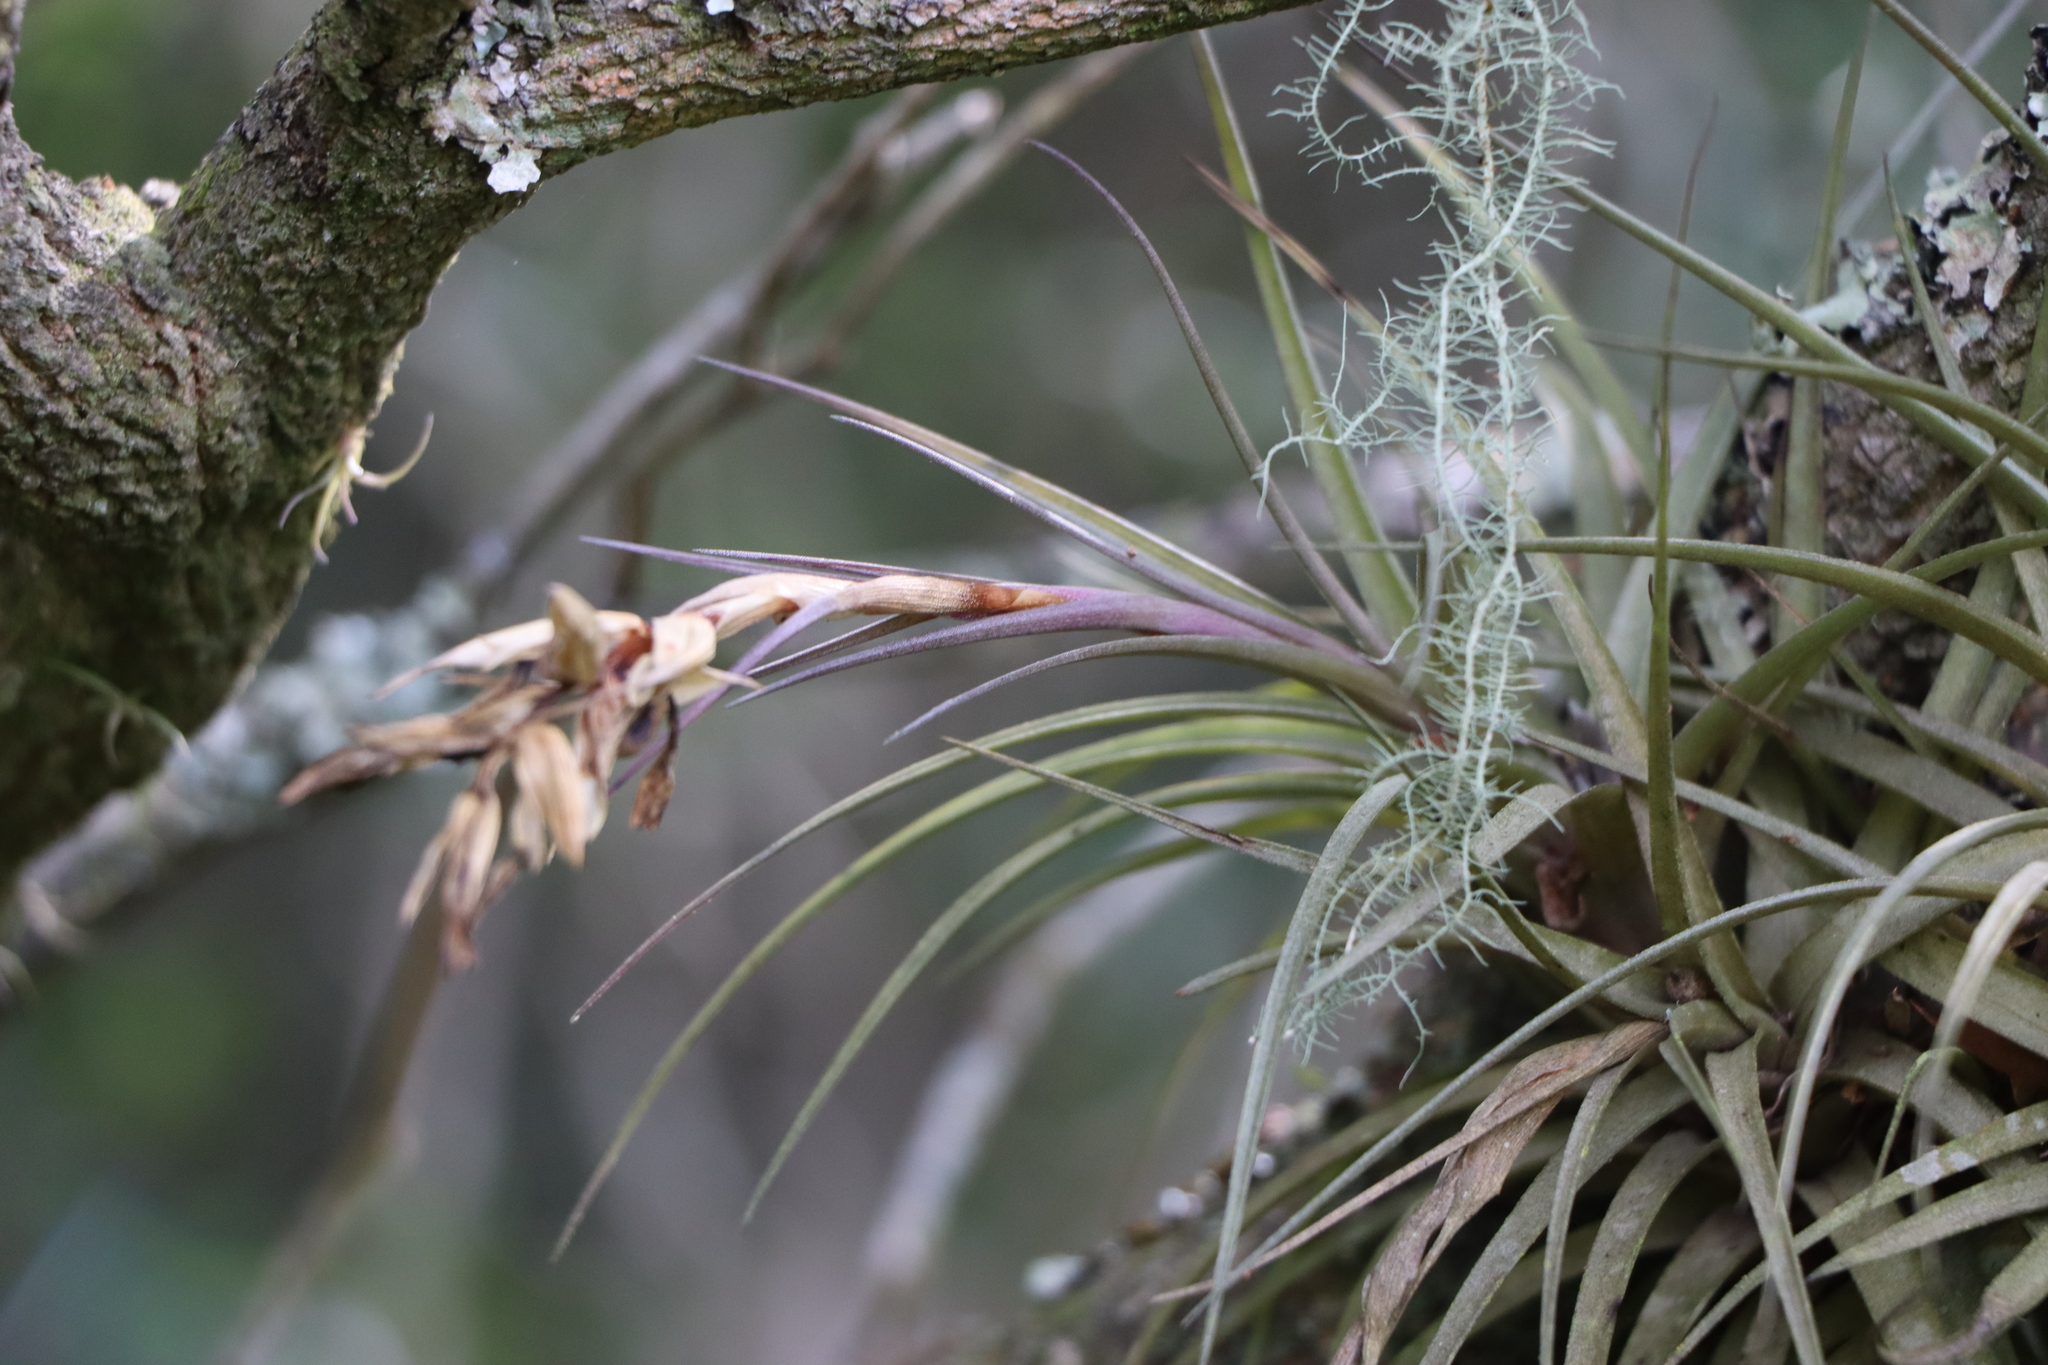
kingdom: Plantae
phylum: Tracheophyta
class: Liliopsida
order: Poales
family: Bromeliaceae
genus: Tillandsia
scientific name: Tillandsia aeranthos
